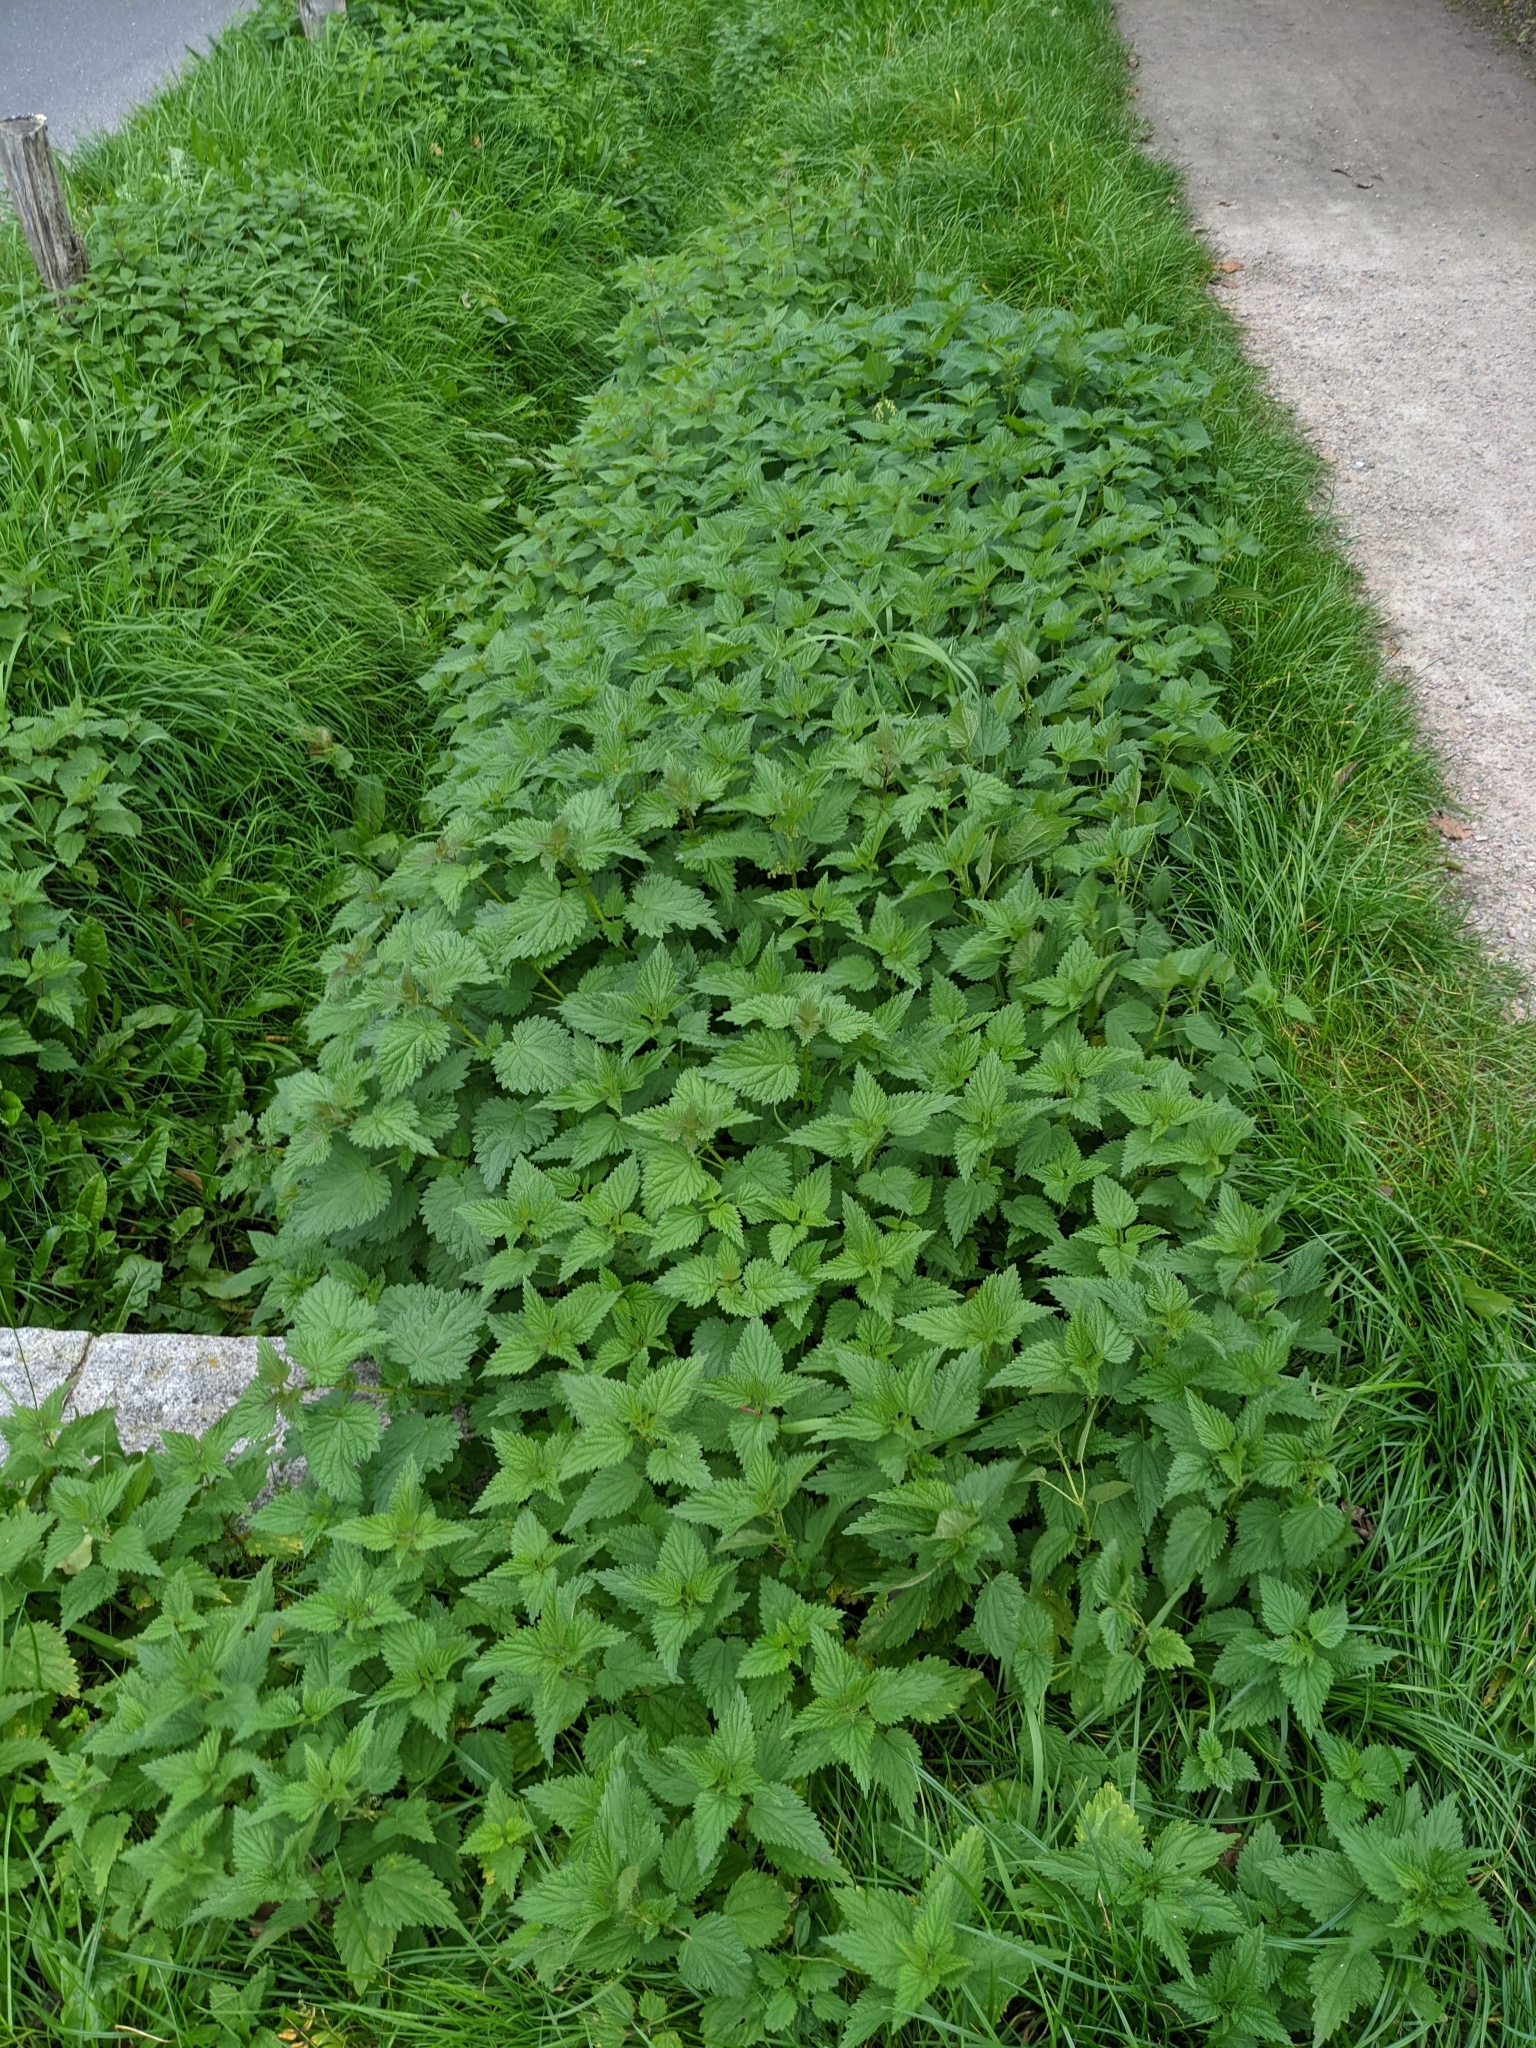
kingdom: Plantae
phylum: Tracheophyta
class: Magnoliopsida
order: Rosales
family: Urticaceae
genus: Urtica
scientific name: Urtica dioica
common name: Common nettle
